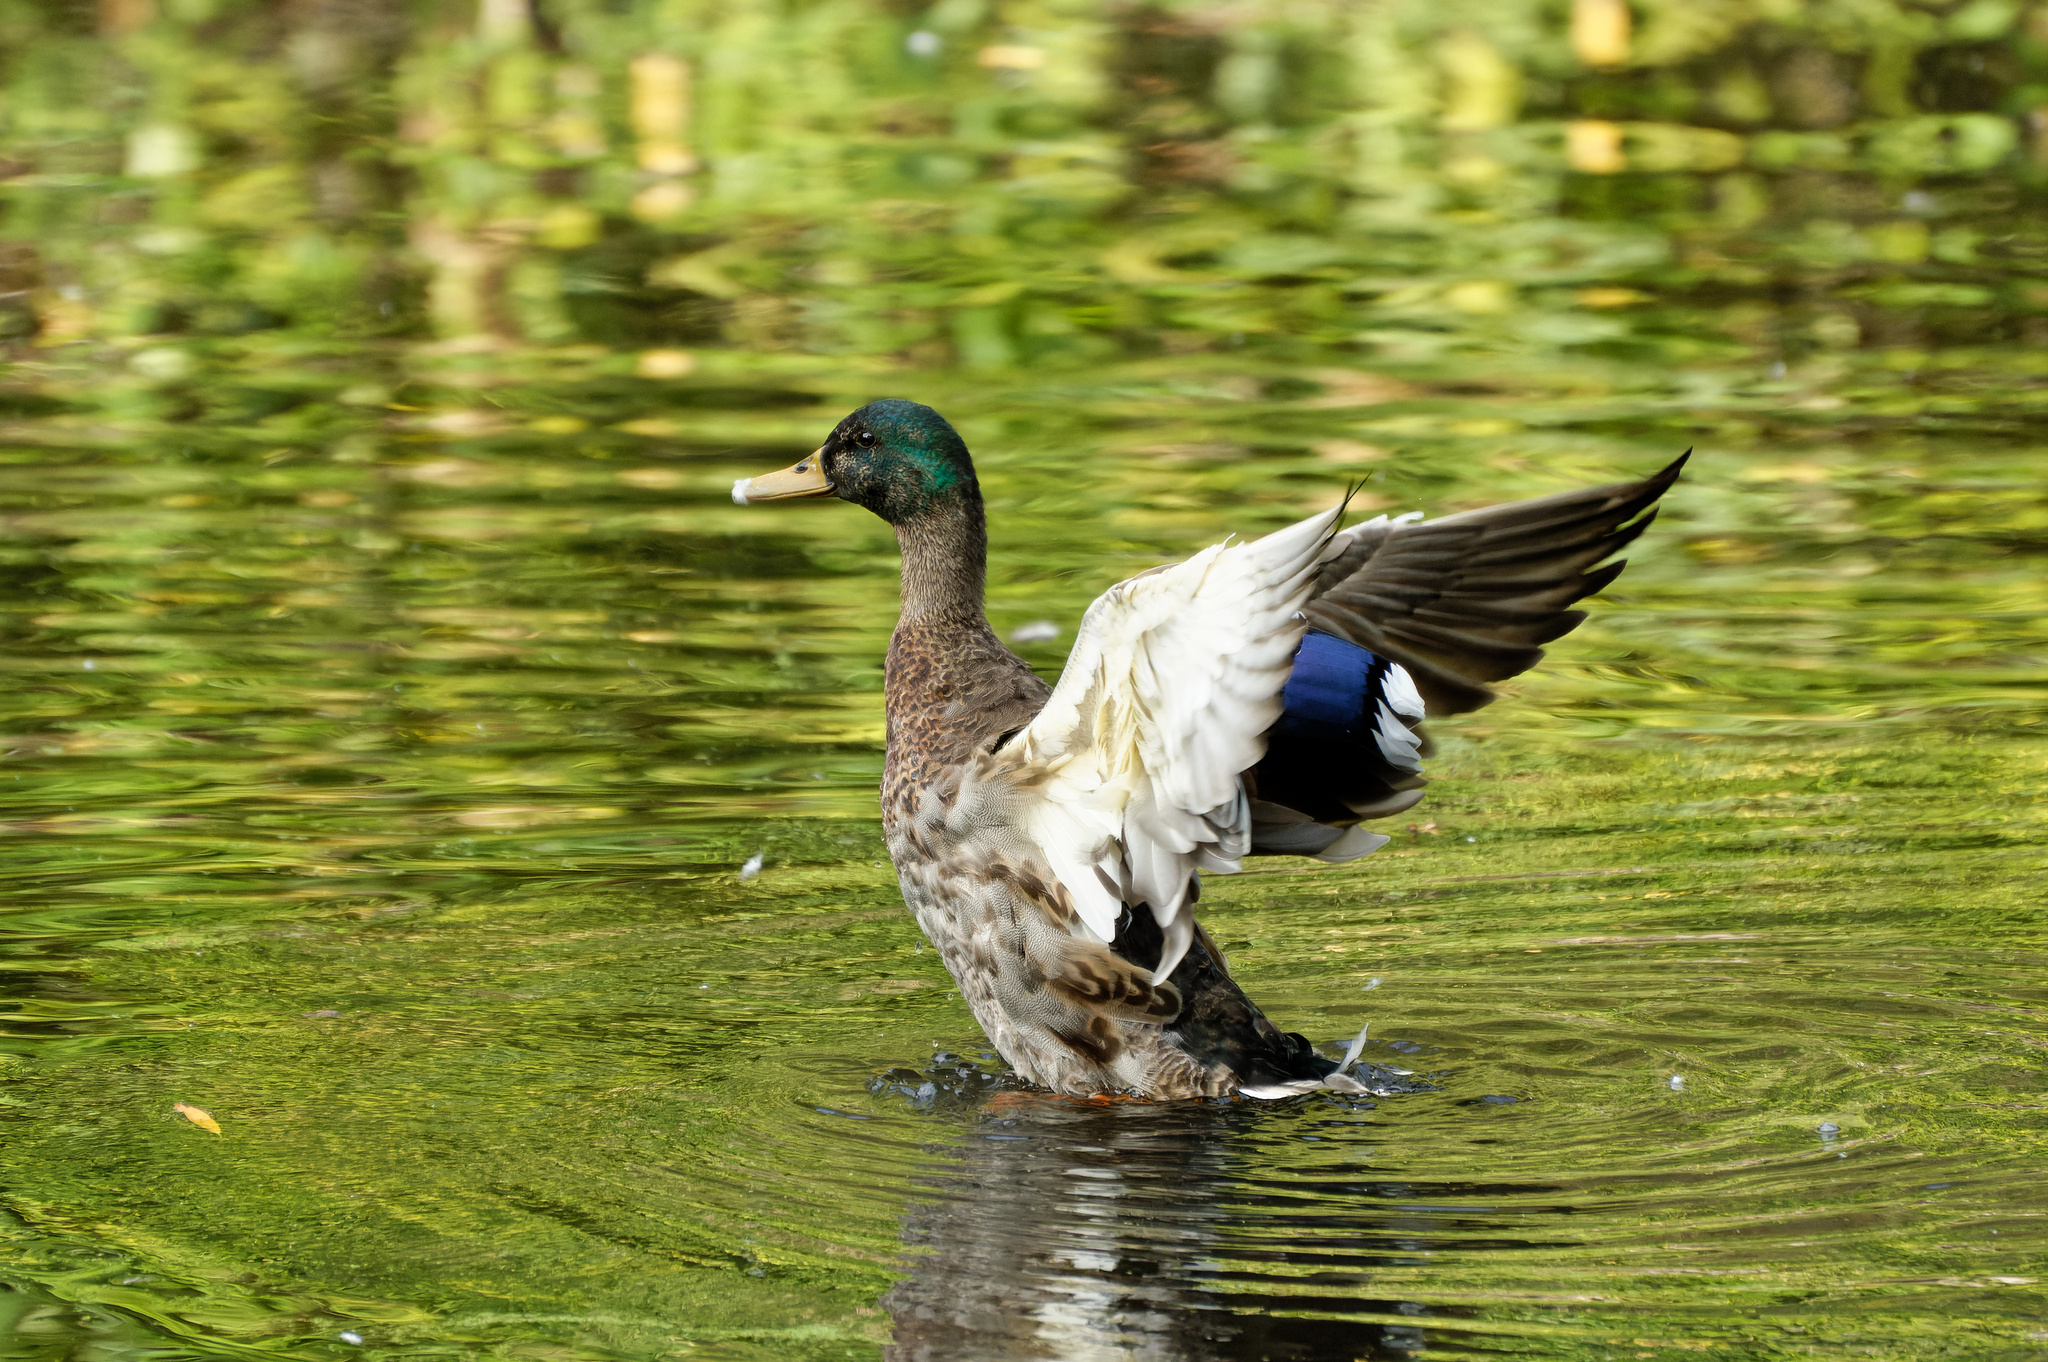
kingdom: Animalia
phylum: Chordata
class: Aves
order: Anseriformes
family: Anatidae
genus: Anas
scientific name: Anas platyrhynchos
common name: Mallard
